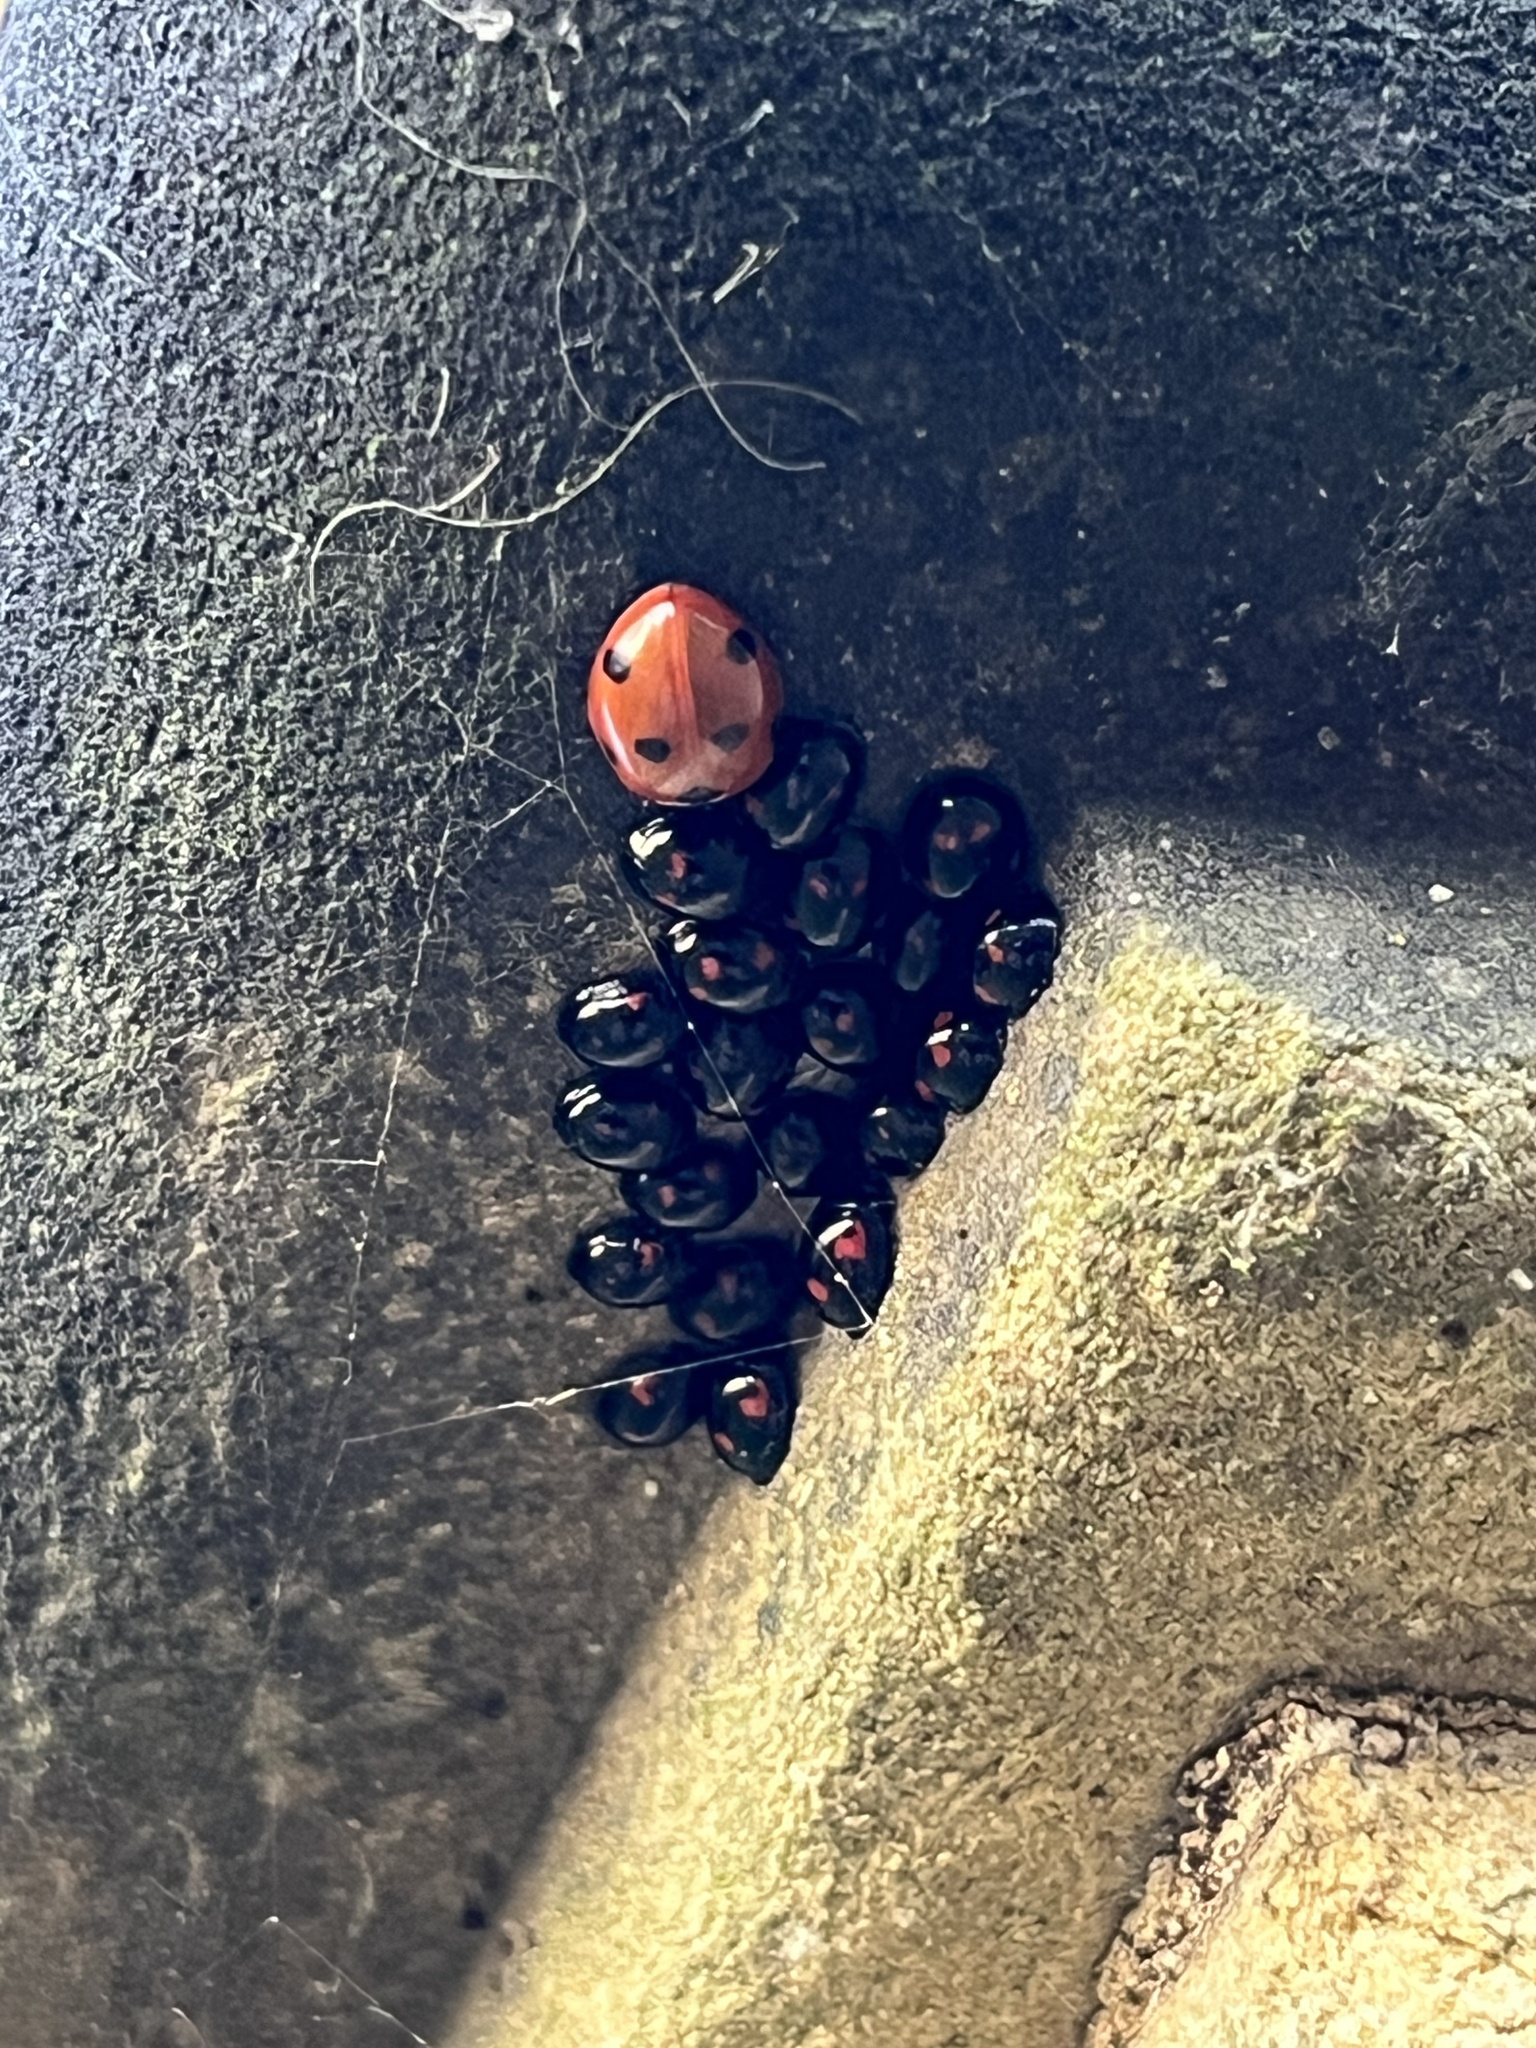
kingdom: Animalia
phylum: Arthropoda
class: Insecta
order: Coleoptera
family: Coccinellidae
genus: Coccinella
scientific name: Coccinella septempunctata
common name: Sevenspotted lady beetle
